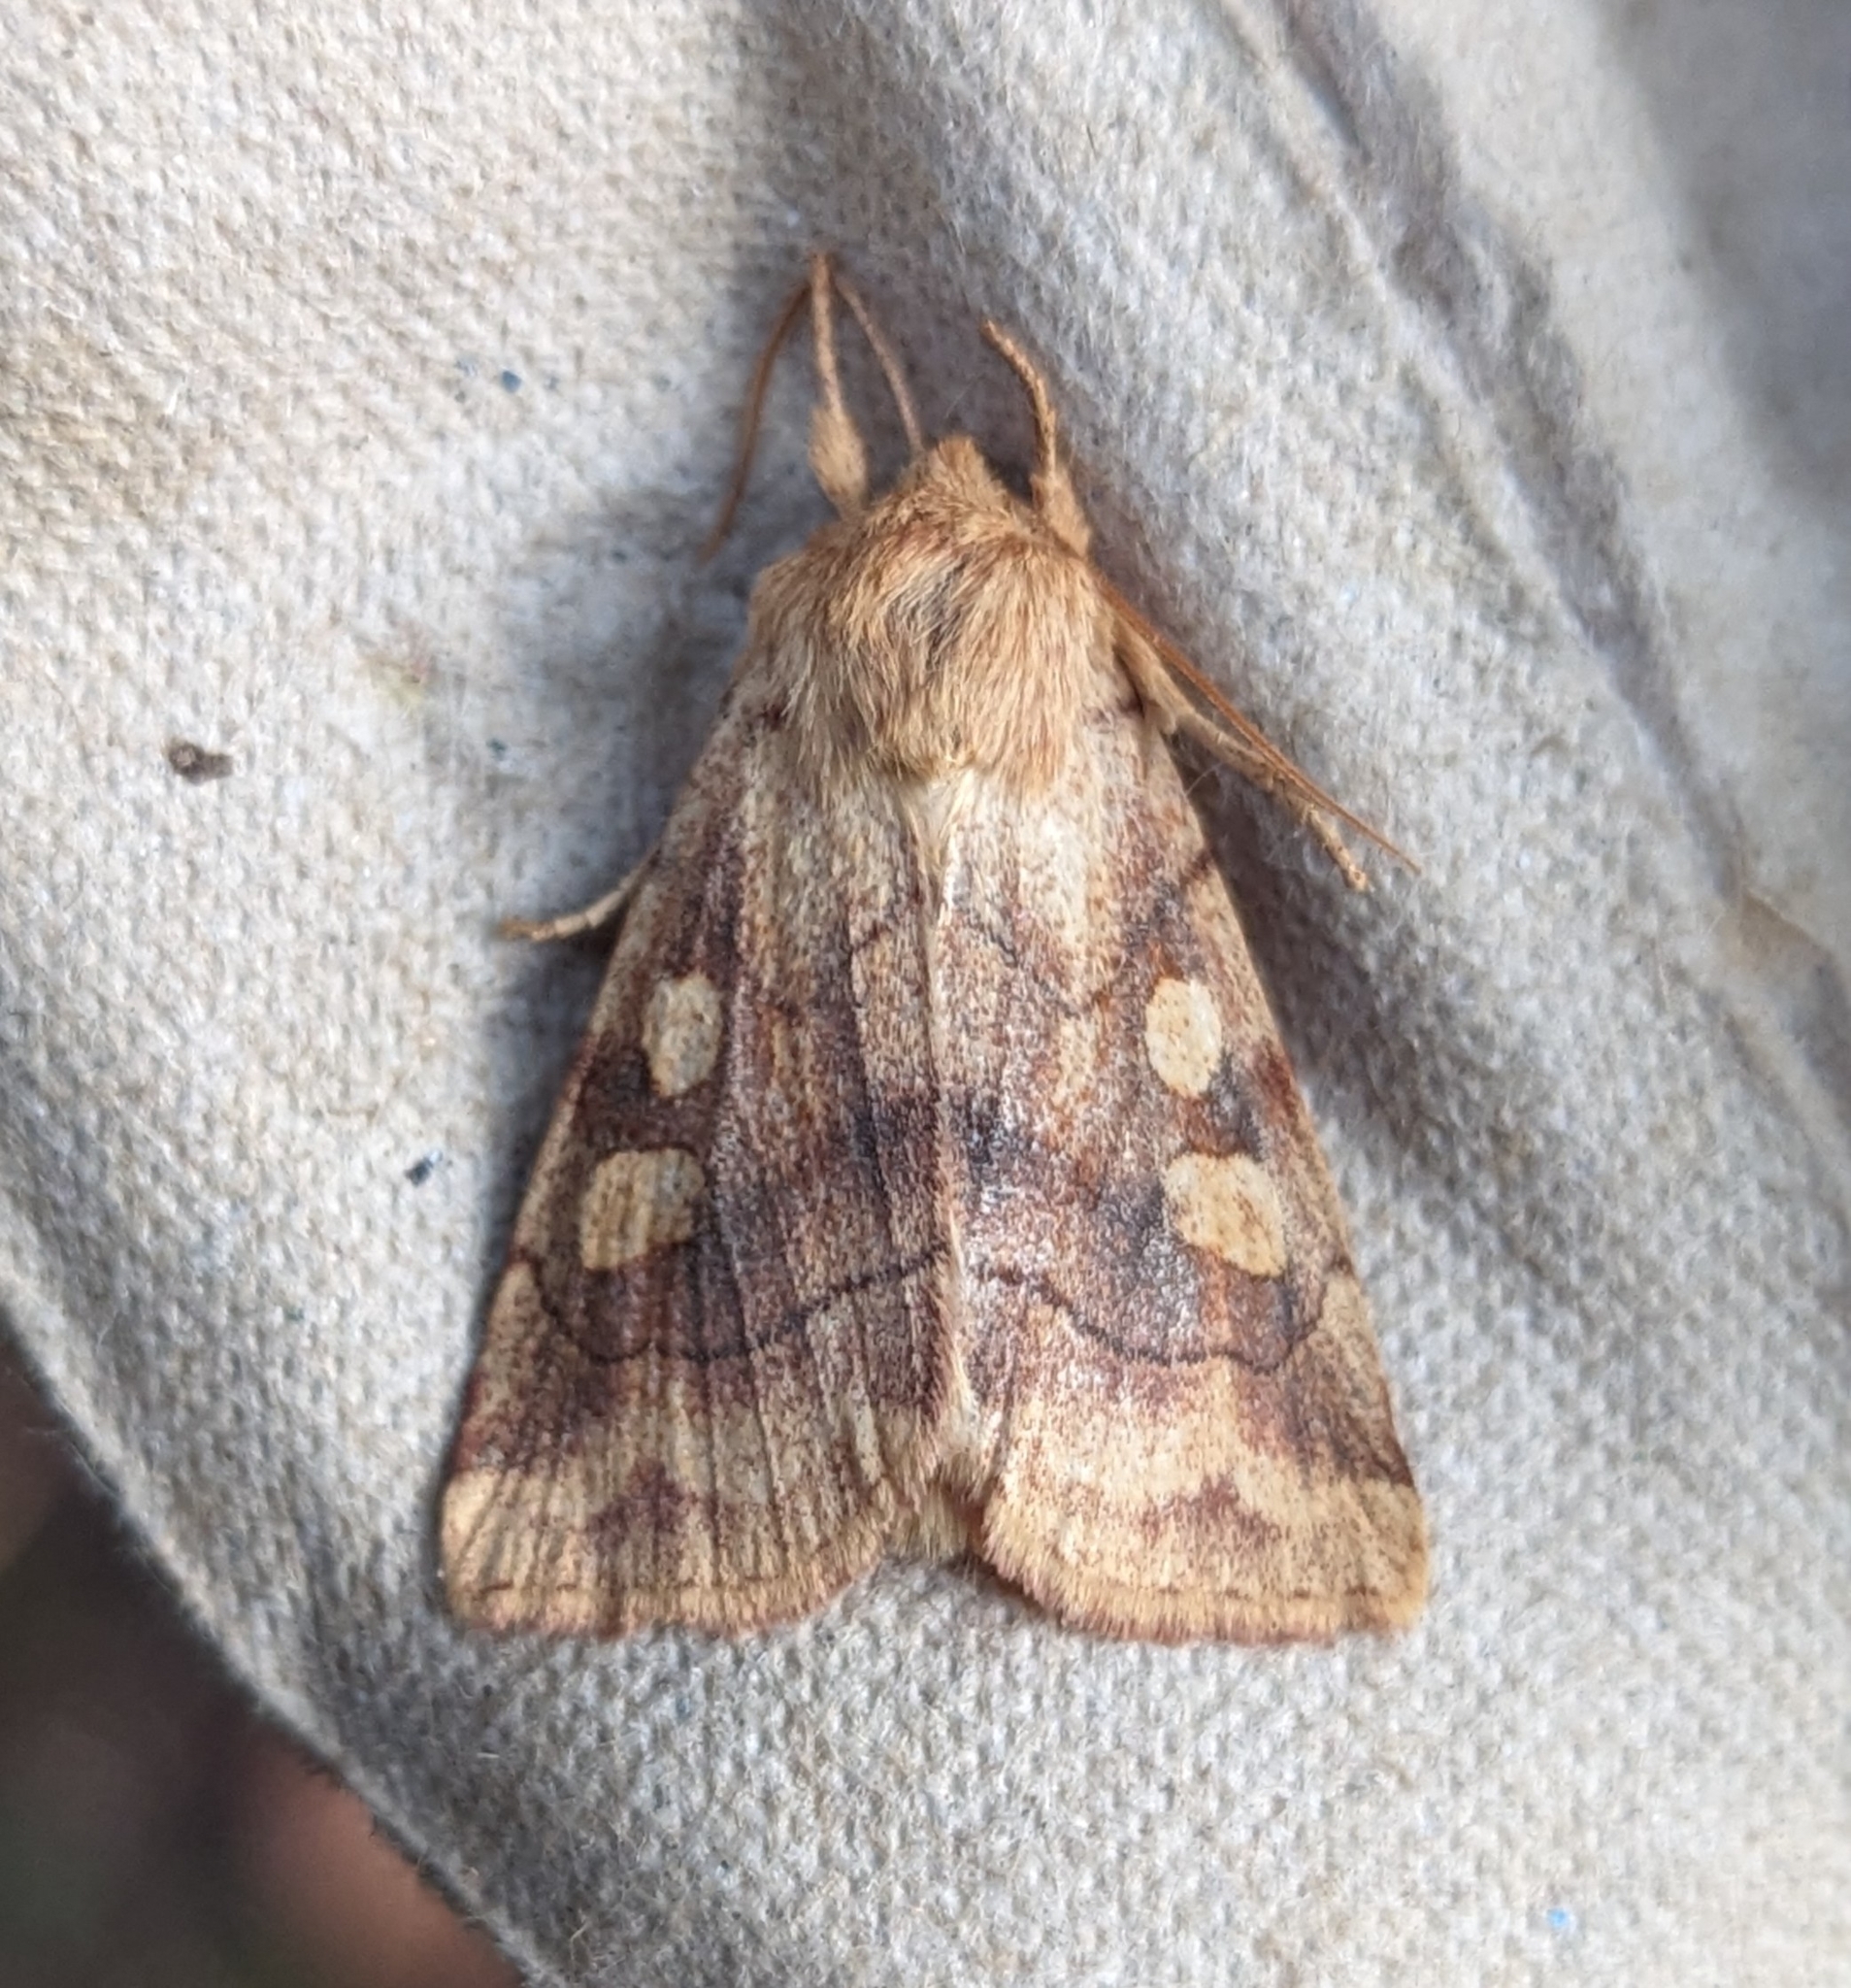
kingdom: Animalia
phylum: Arthropoda
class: Insecta
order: Lepidoptera
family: Noctuidae
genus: Enargia
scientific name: Enargia decolor
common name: Aspen twoleaf tier moth
